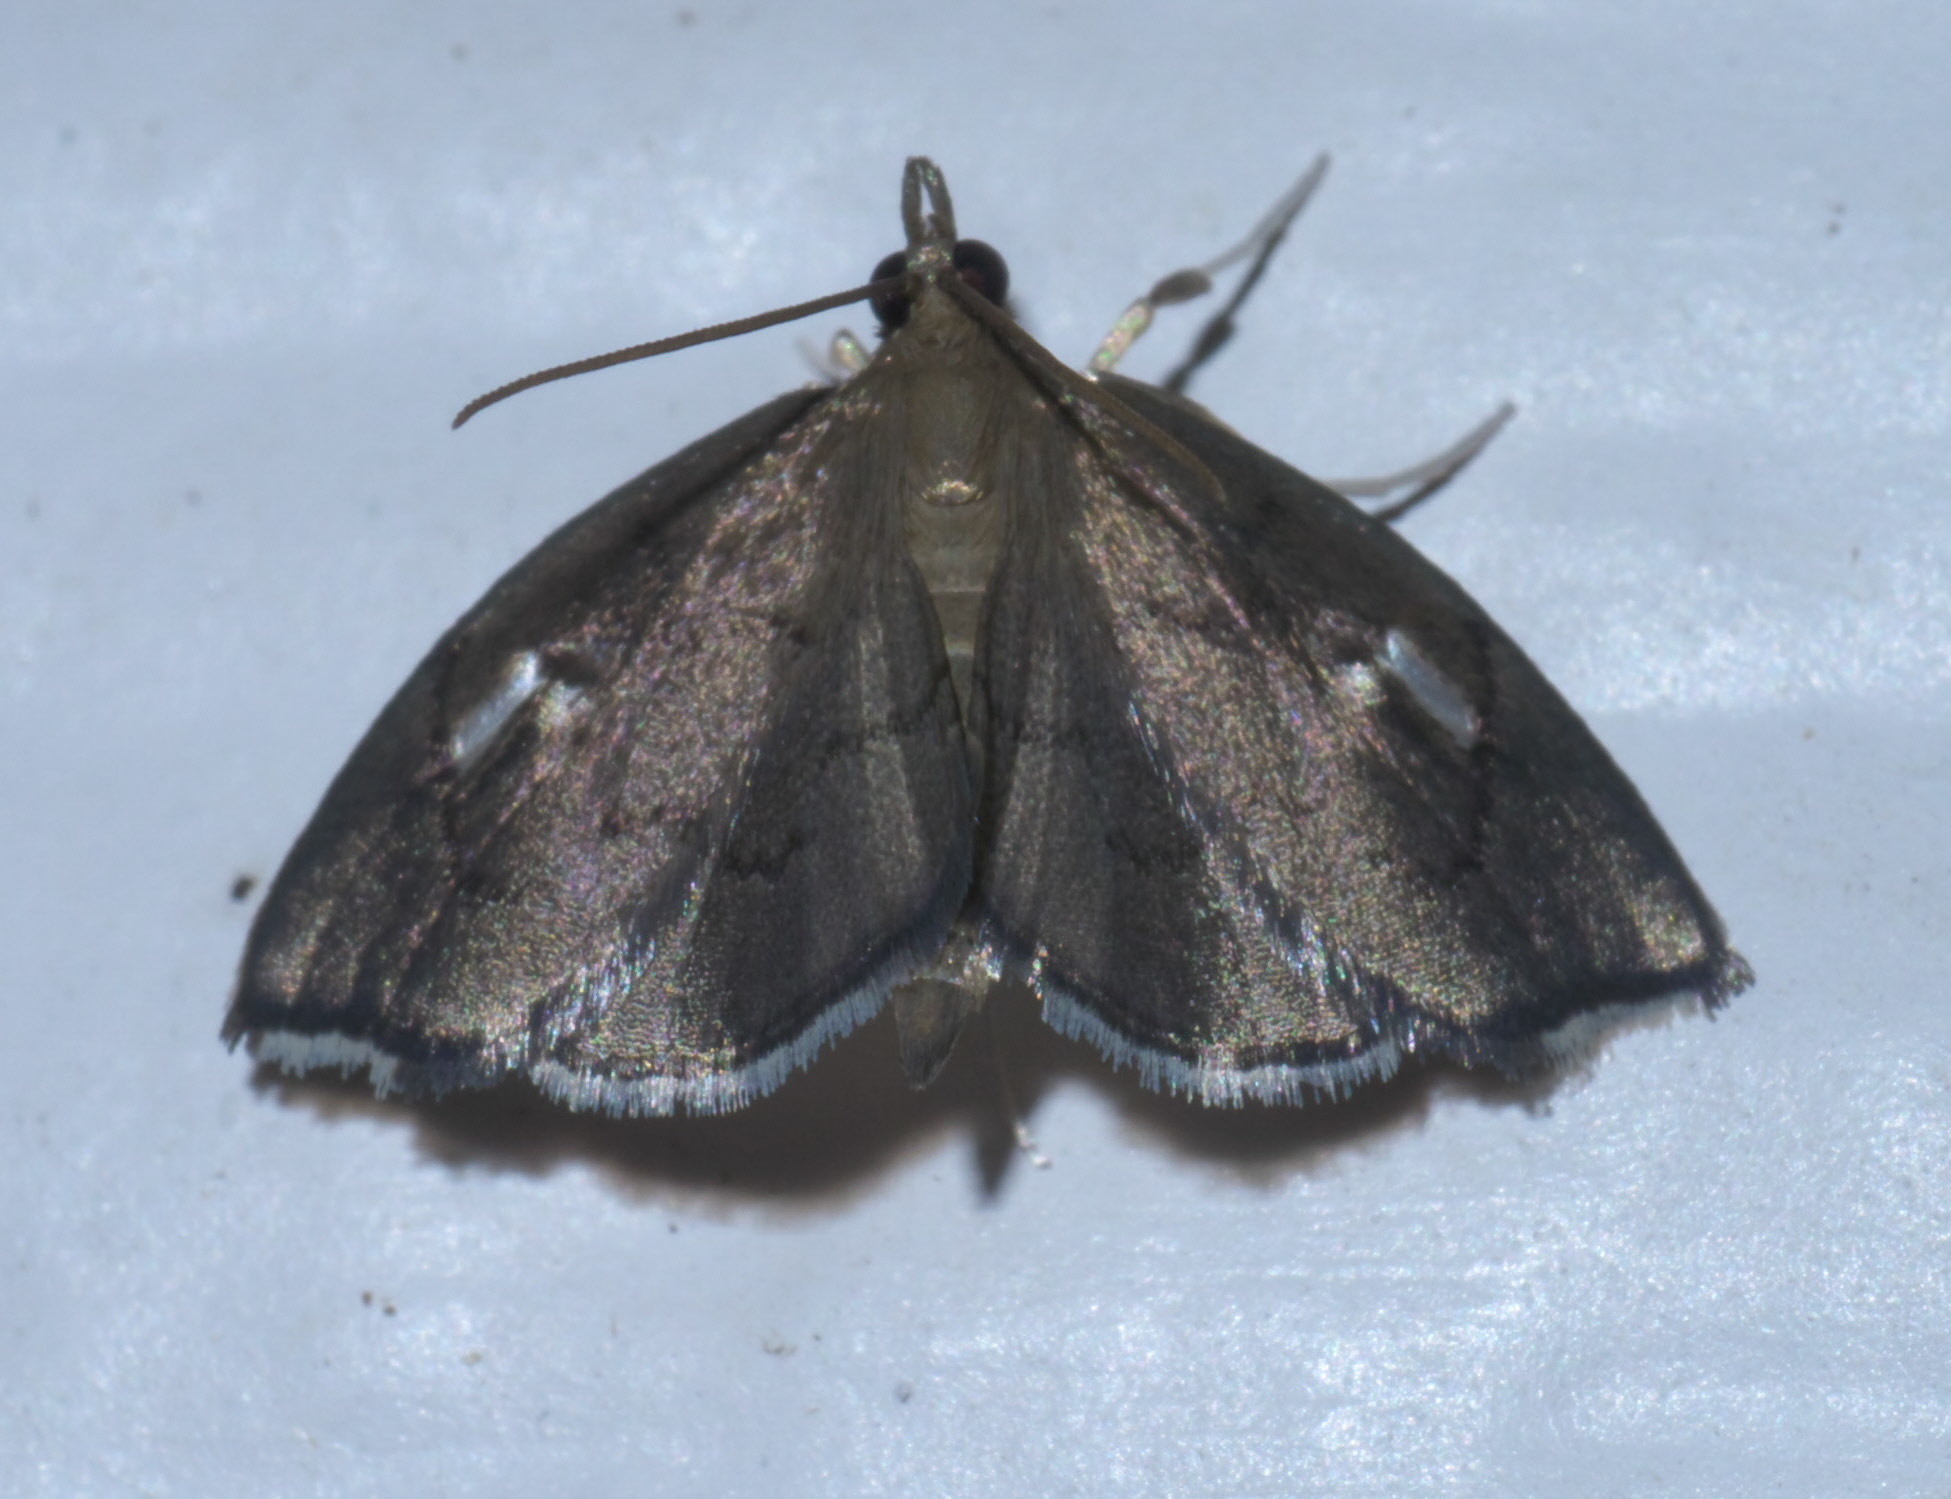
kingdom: Animalia
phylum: Arthropoda
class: Insecta
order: Lepidoptera
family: Crambidae
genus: Perispasta
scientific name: Perispasta caeculalis
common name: Titian peale's moth
